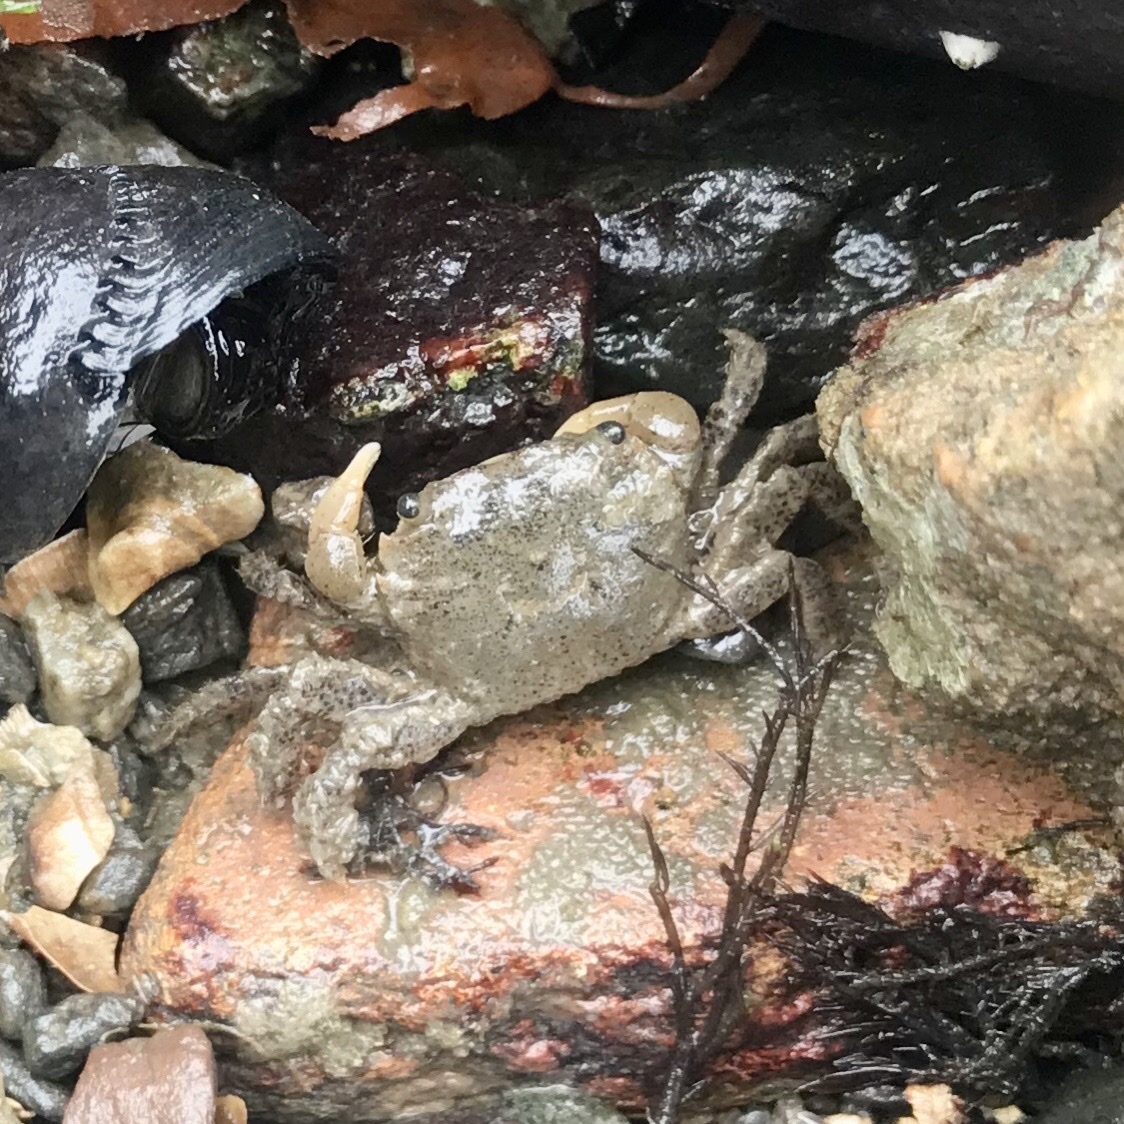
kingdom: Animalia
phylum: Arthropoda
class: Malacostraca
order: Decapoda
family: Varunidae
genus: Hemigrapsus
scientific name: Hemigrapsus oregonensis
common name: Yellow shore crab
